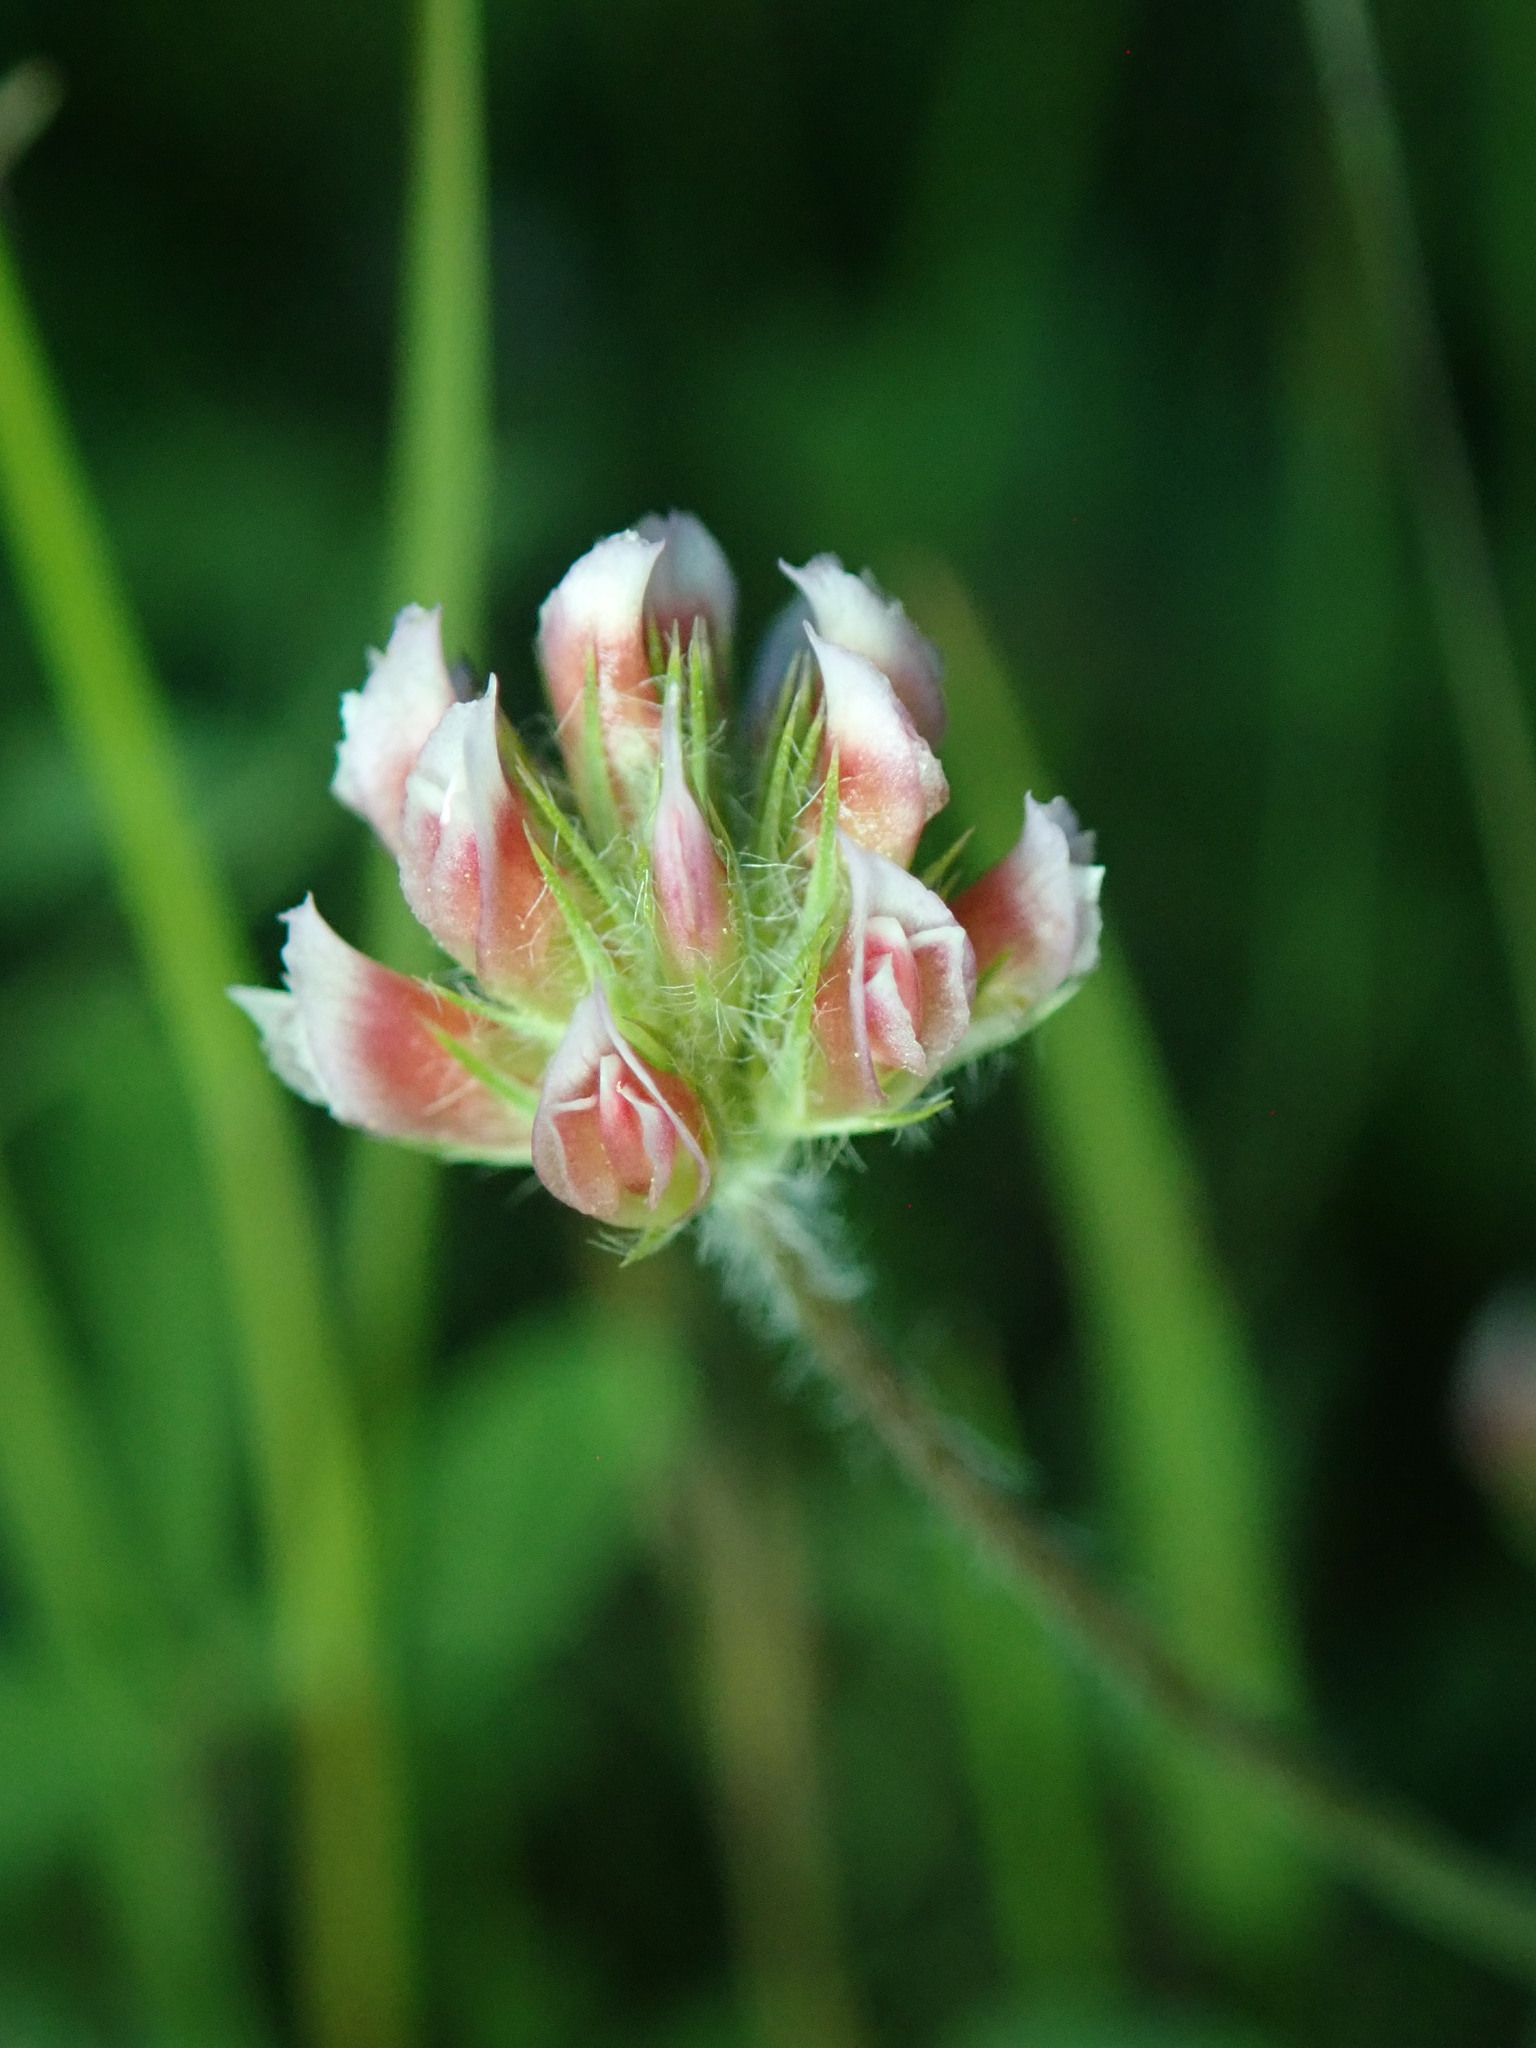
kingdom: Plantae
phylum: Tracheophyta
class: Magnoliopsida
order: Fabales
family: Fabaceae
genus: Trifolium
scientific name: Trifolium bifidum
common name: Notch-leaf clover
